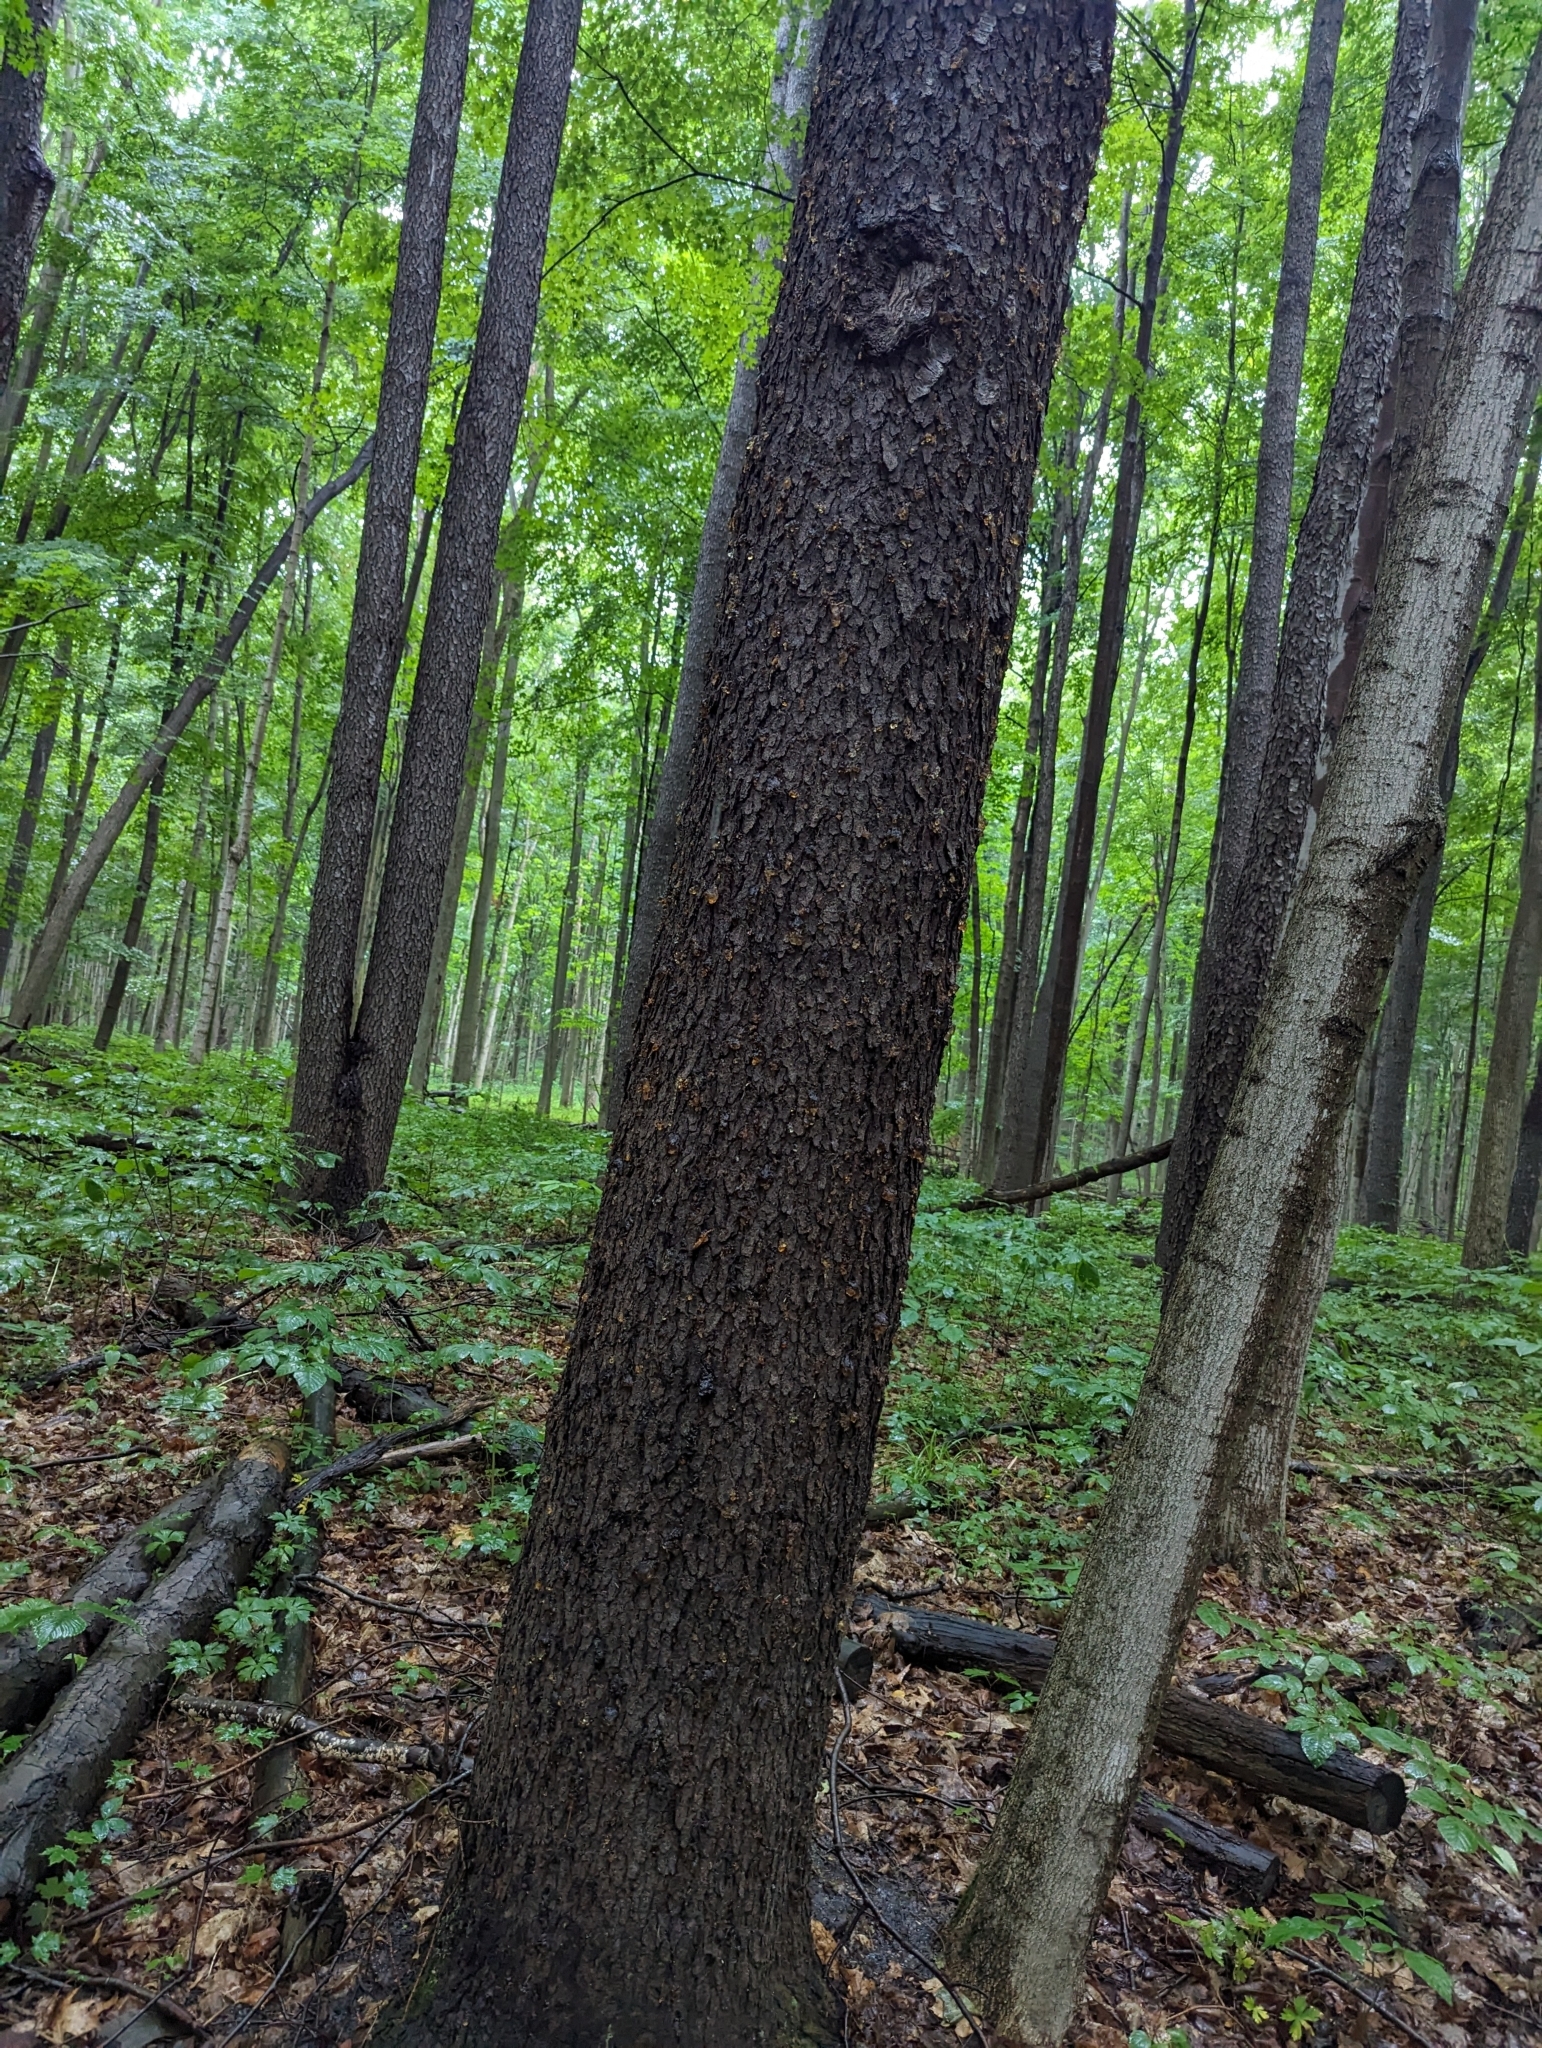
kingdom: Plantae
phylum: Tracheophyta
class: Magnoliopsida
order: Rosales
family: Rosaceae
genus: Prunus
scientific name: Prunus serotina
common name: Black cherry
